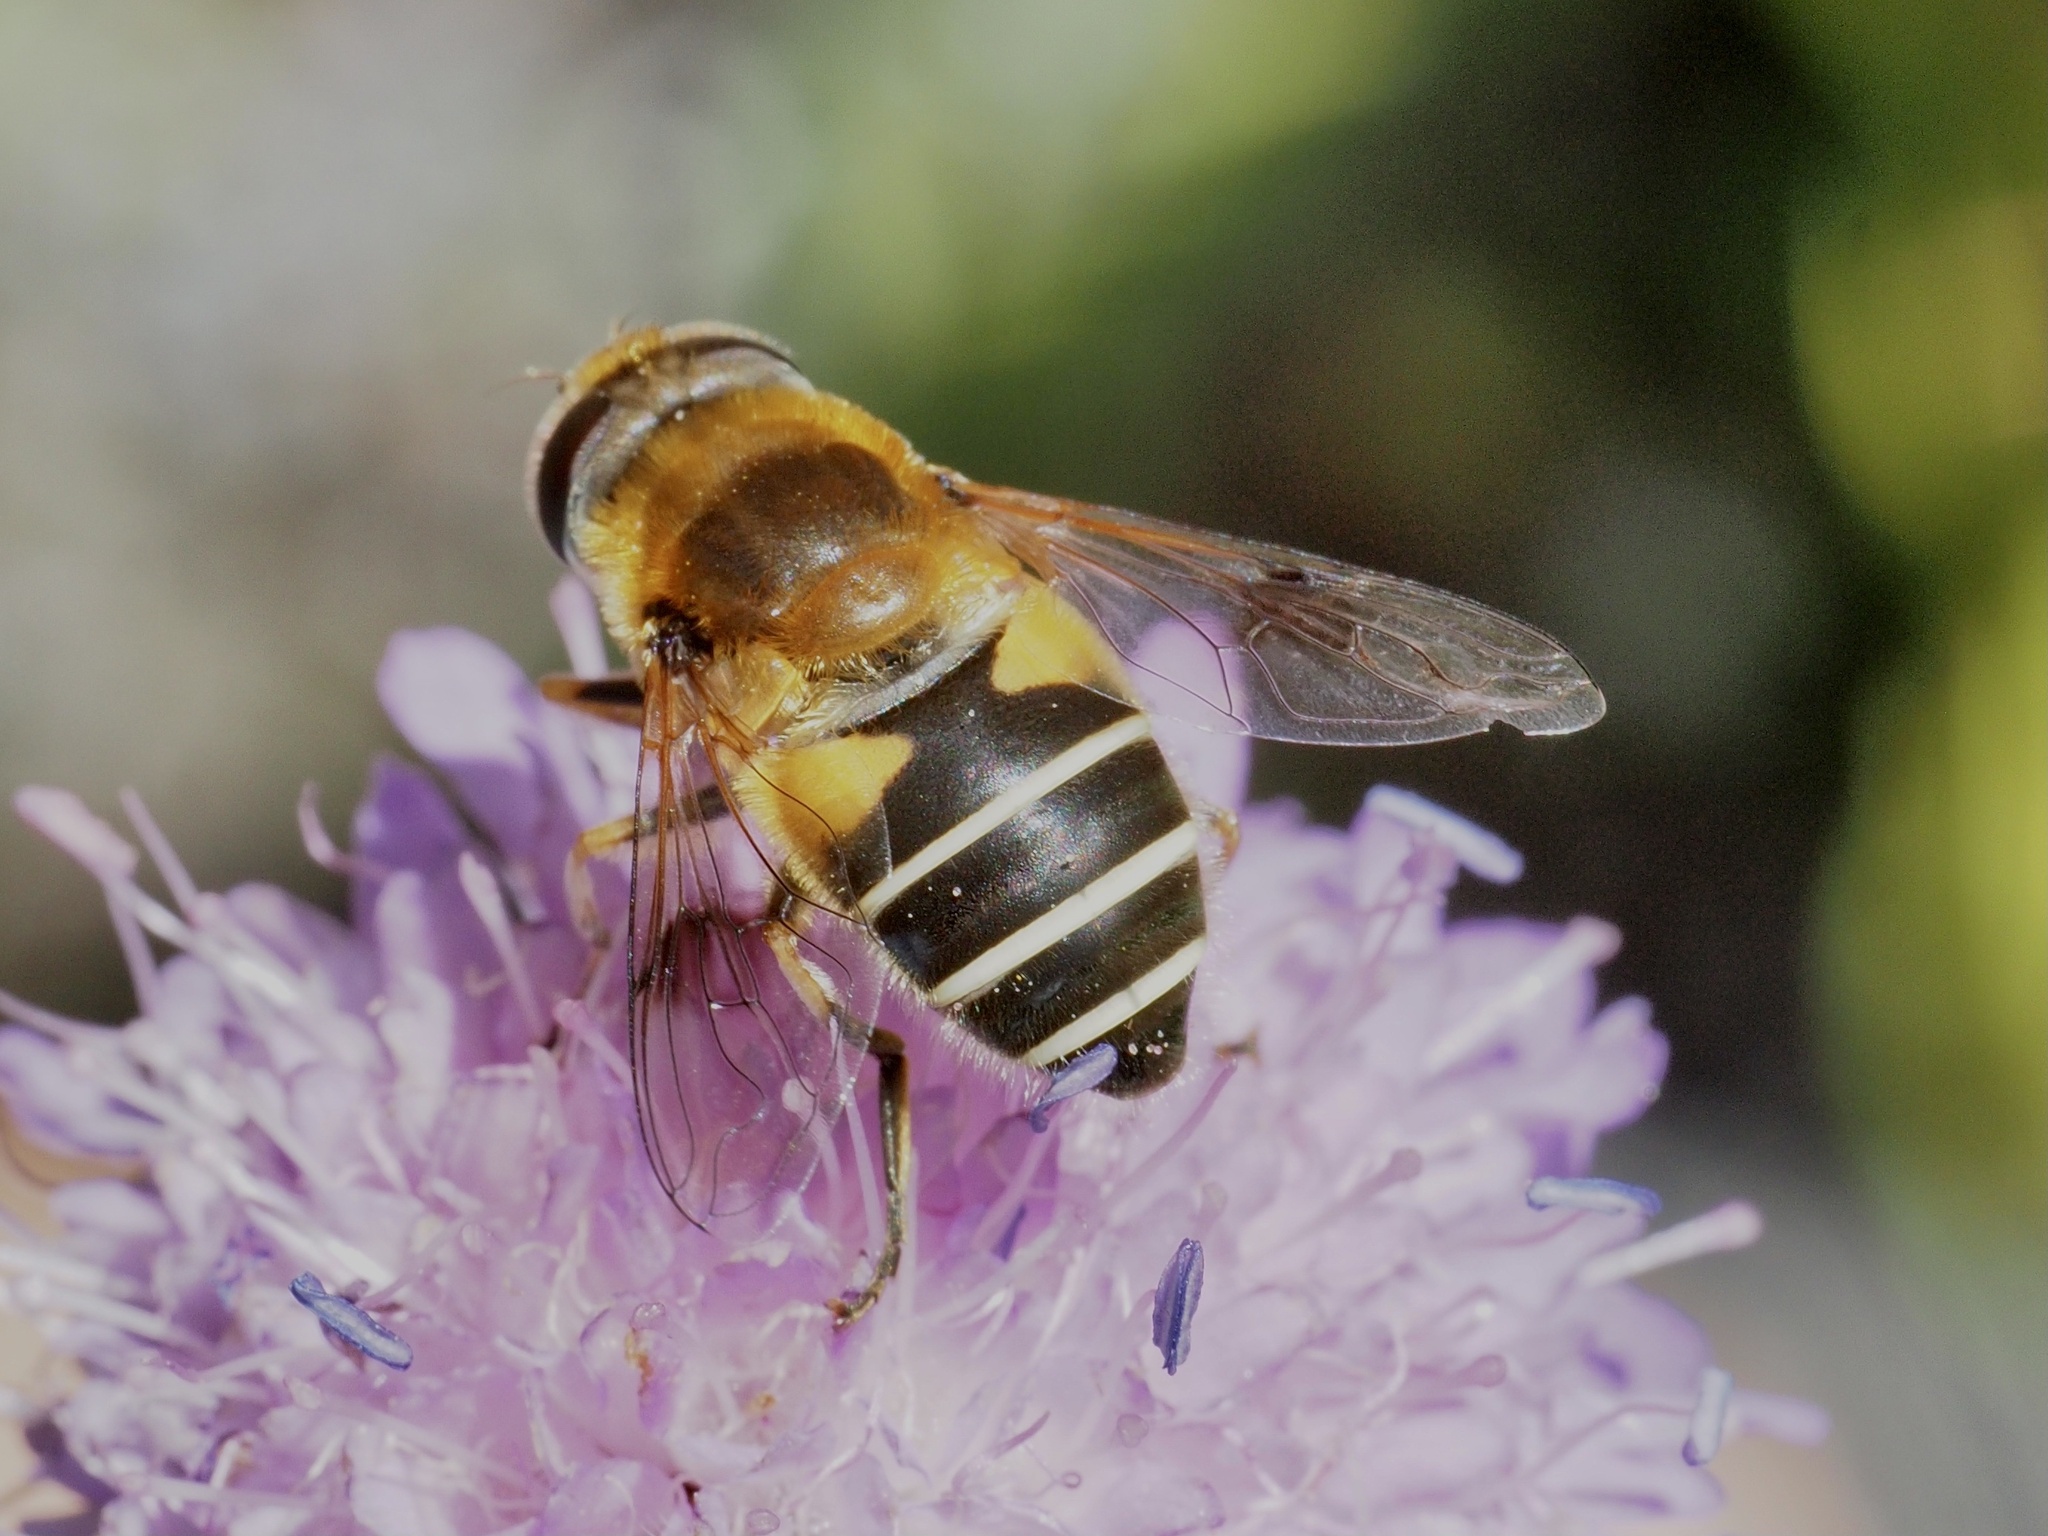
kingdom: Animalia
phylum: Arthropoda
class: Insecta
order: Diptera
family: Syrphidae
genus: Eristalis
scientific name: Eristalis jugorum
